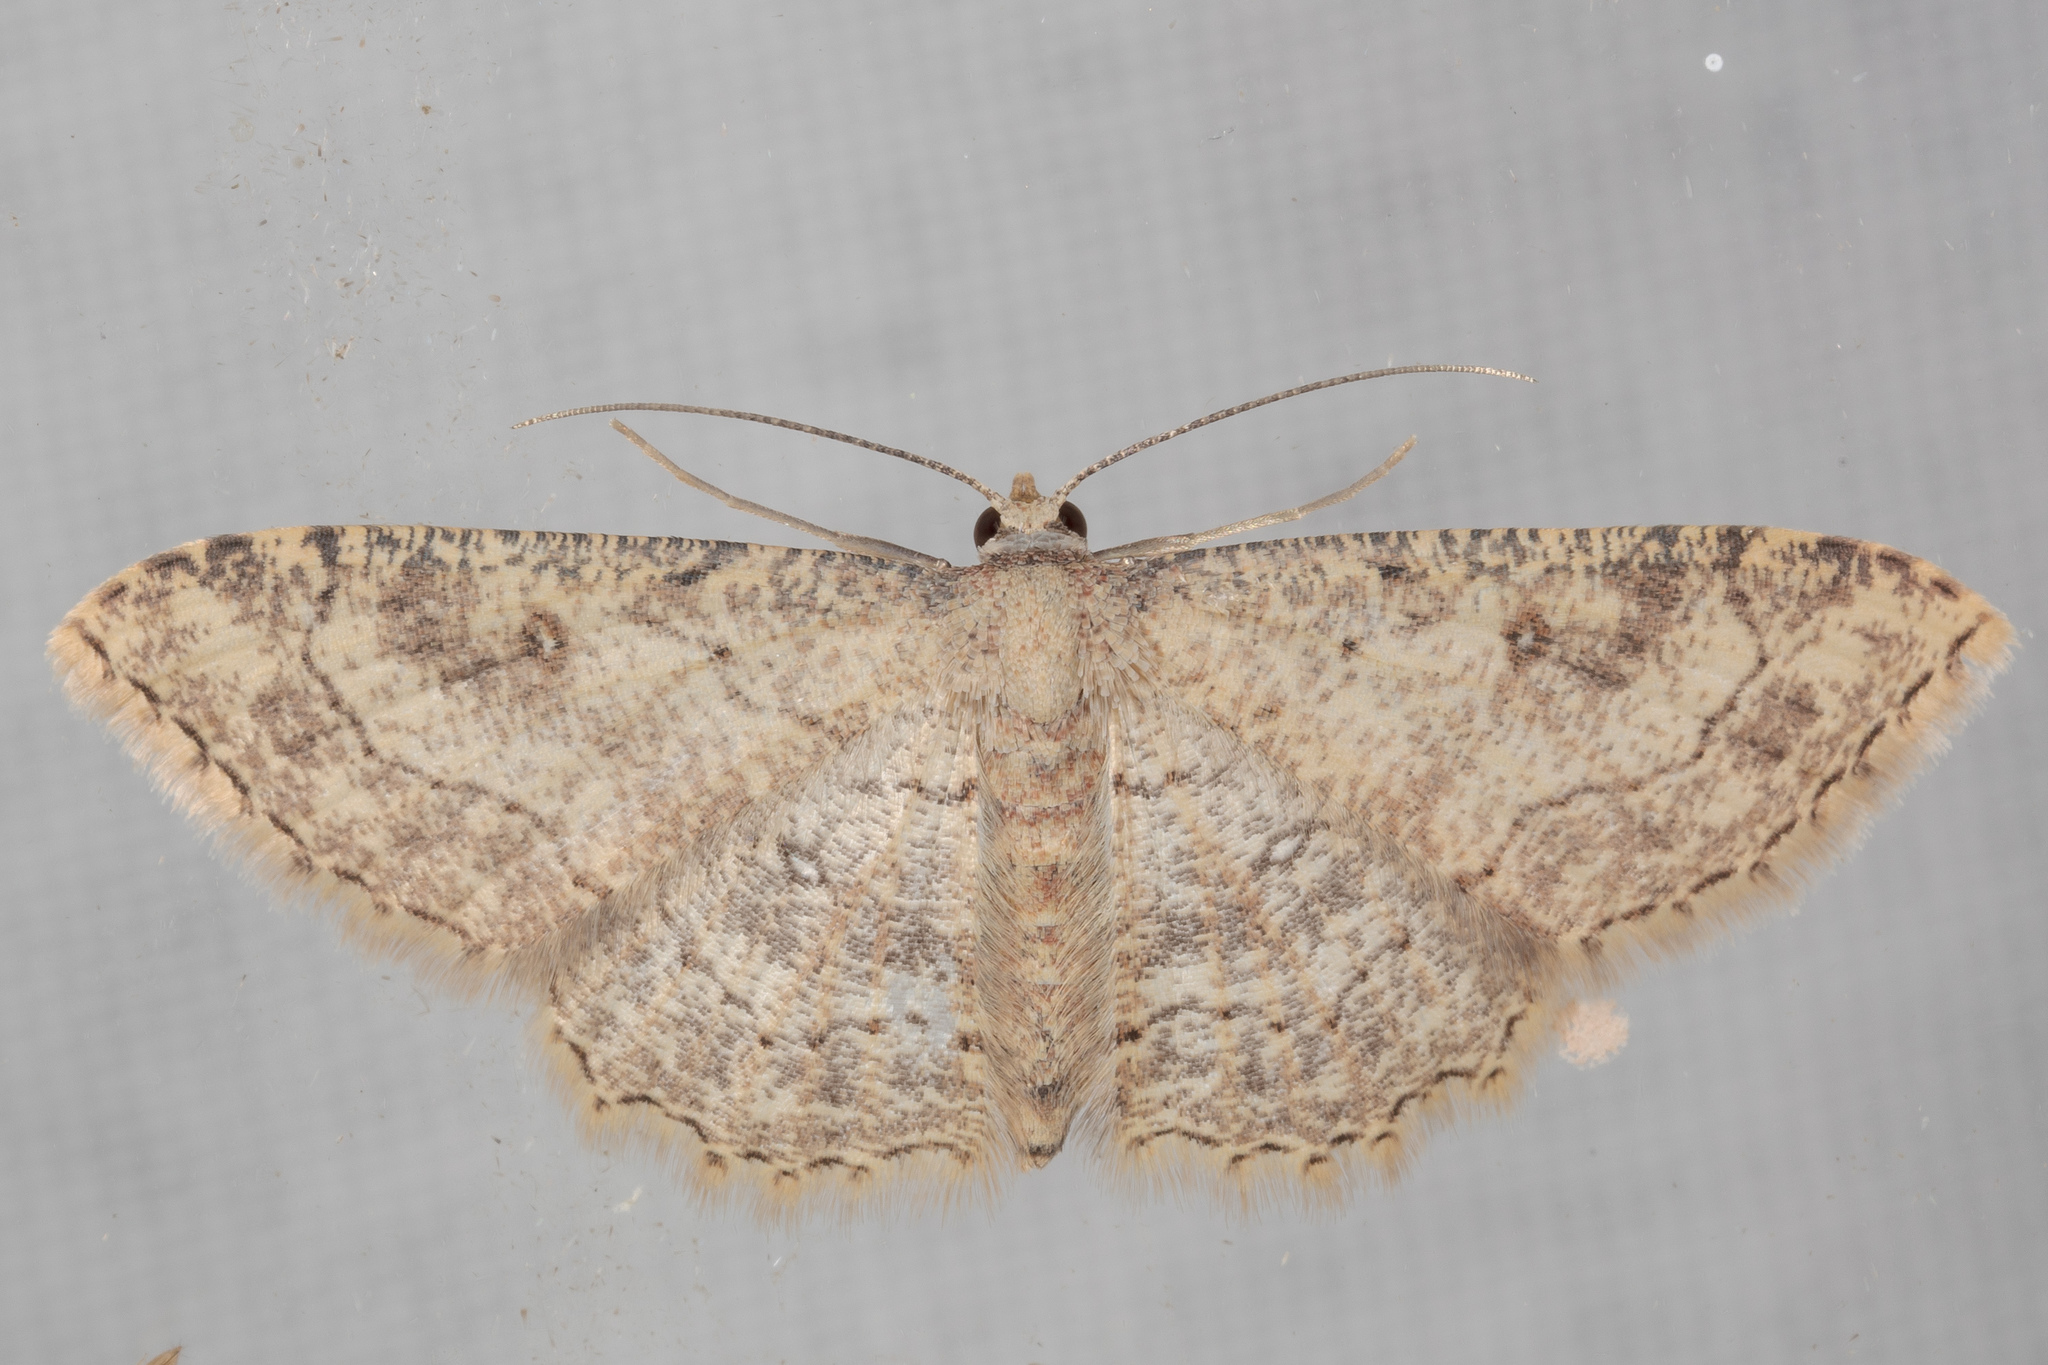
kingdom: Animalia
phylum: Arthropoda
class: Insecta
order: Lepidoptera
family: Geometridae
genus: Cyclophora
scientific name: Cyclophora nanaria
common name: Cankerworm
